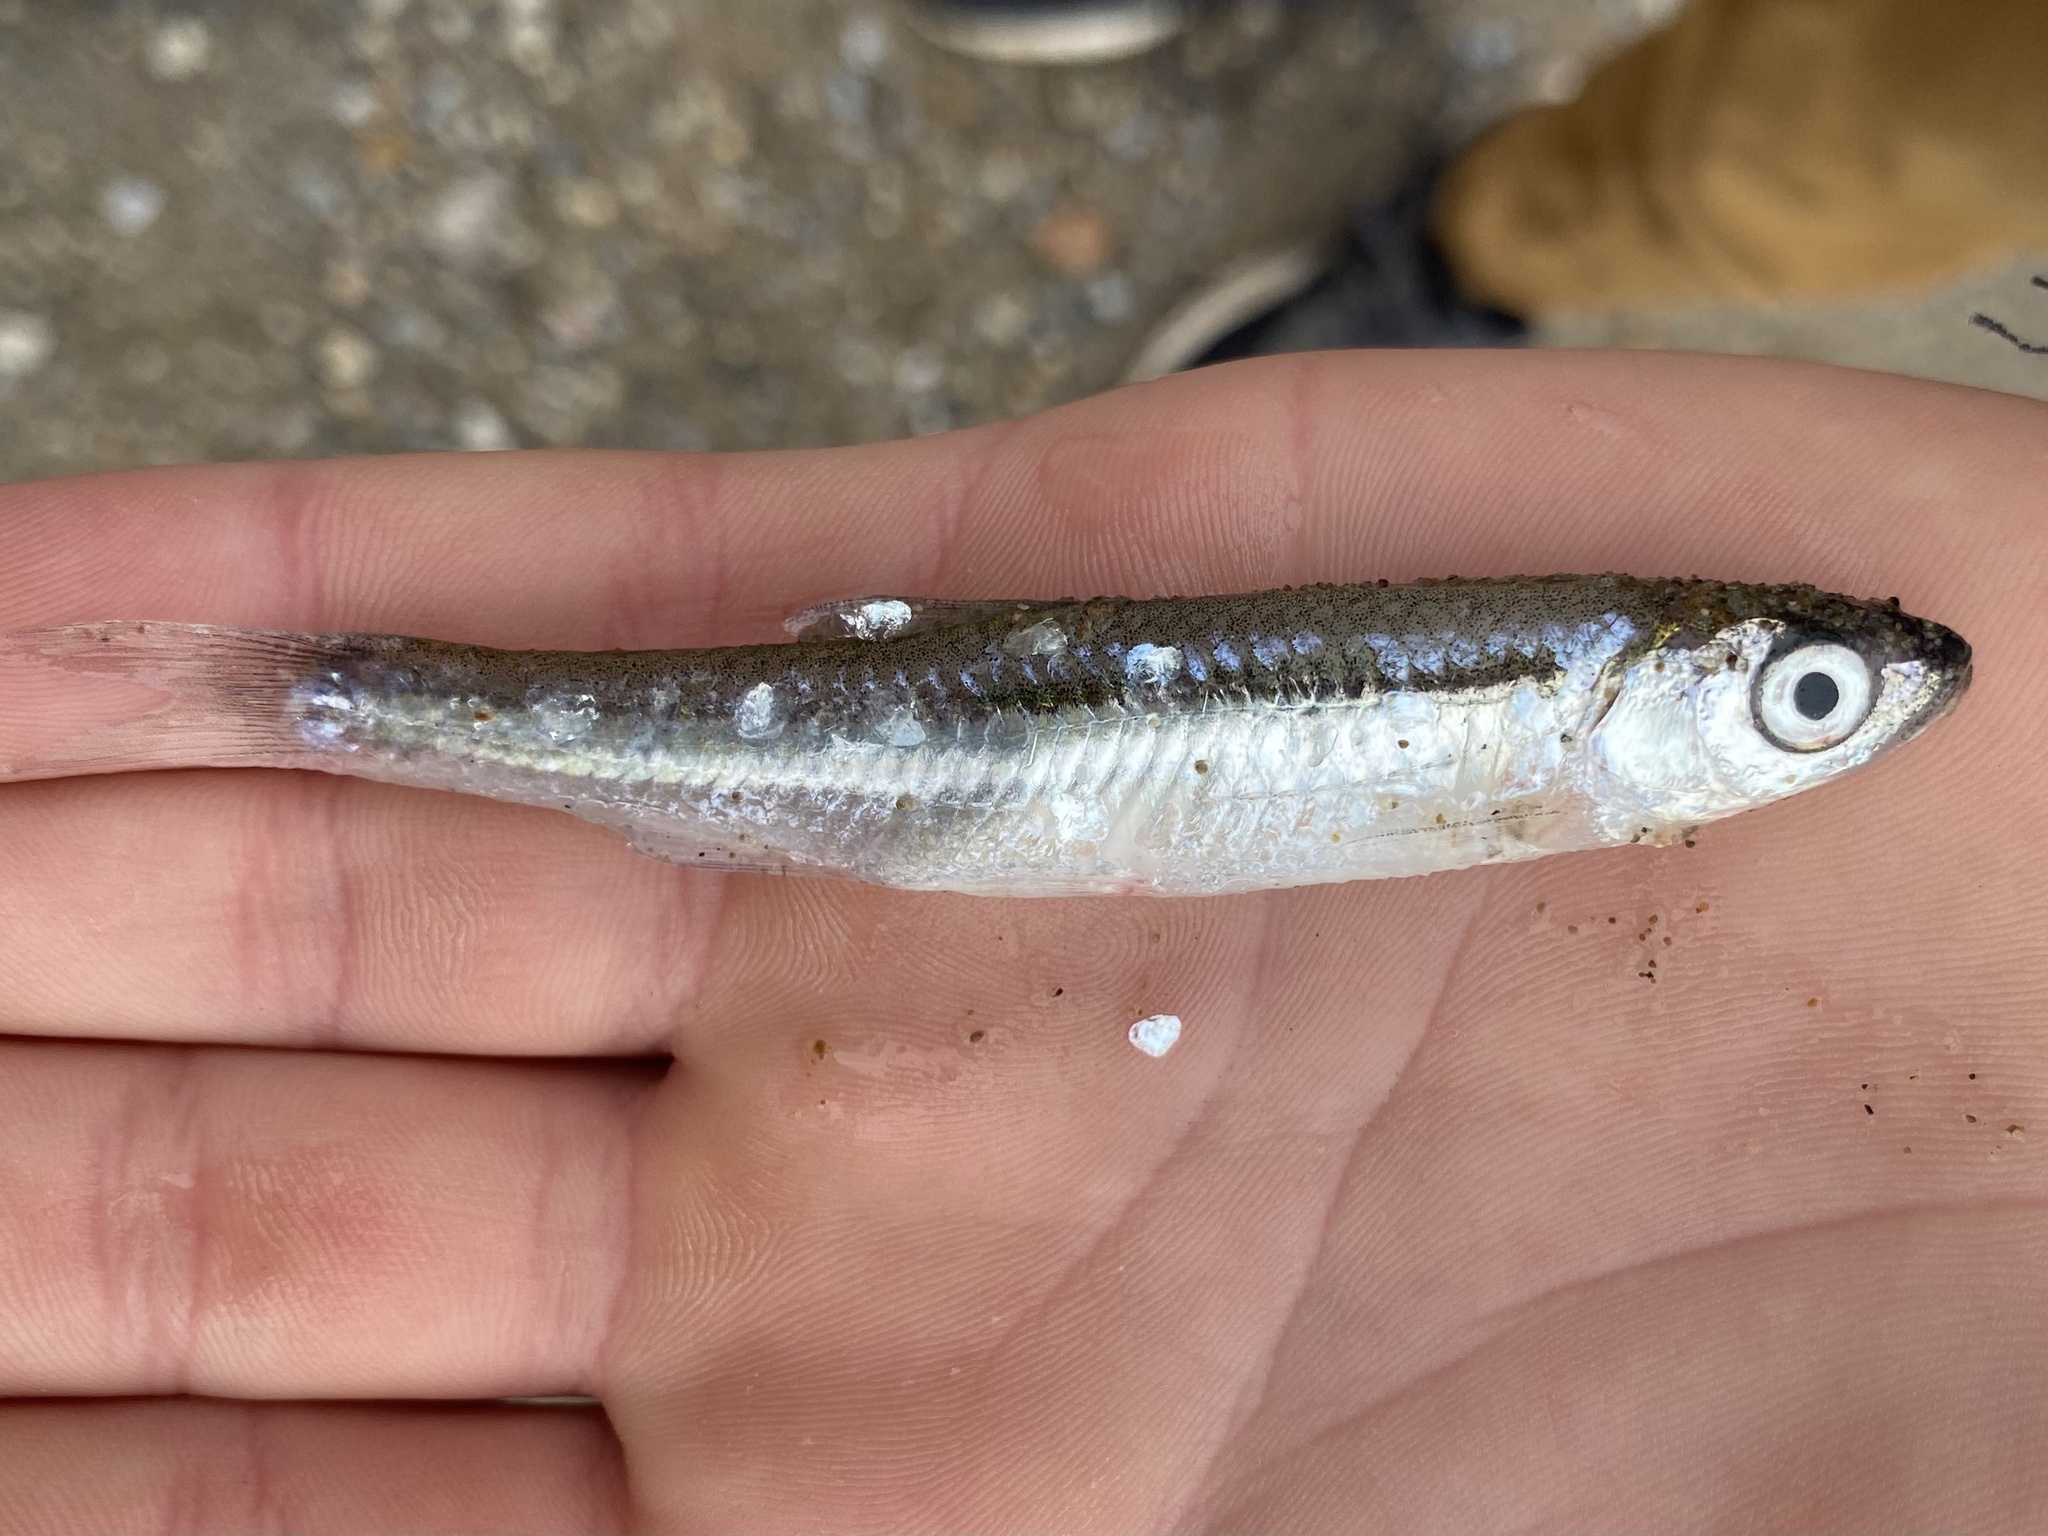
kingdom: Animalia
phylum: Chordata
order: Cypriniformes
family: Cyprinidae
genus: Notropis
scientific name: Notropis atherinoides
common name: Emerald shiner
